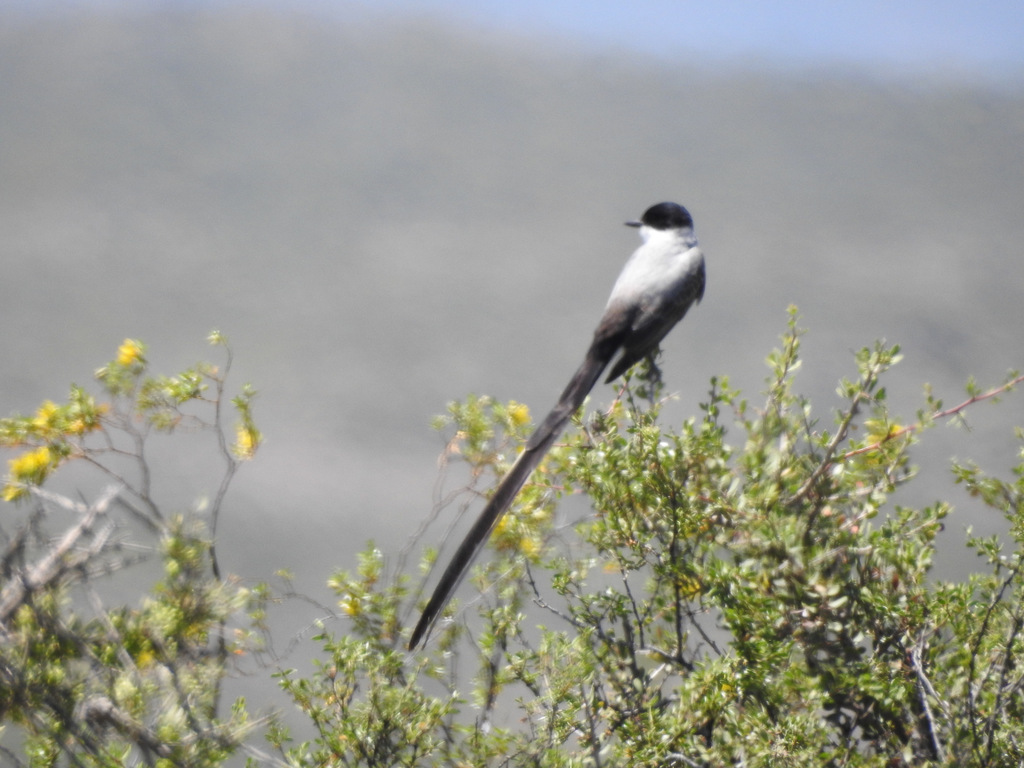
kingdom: Animalia
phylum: Chordata
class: Aves
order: Passeriformes
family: Tyrannidae
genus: Tyrannus
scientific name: Tyrannus savana
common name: Fork-tailed flycatcher
